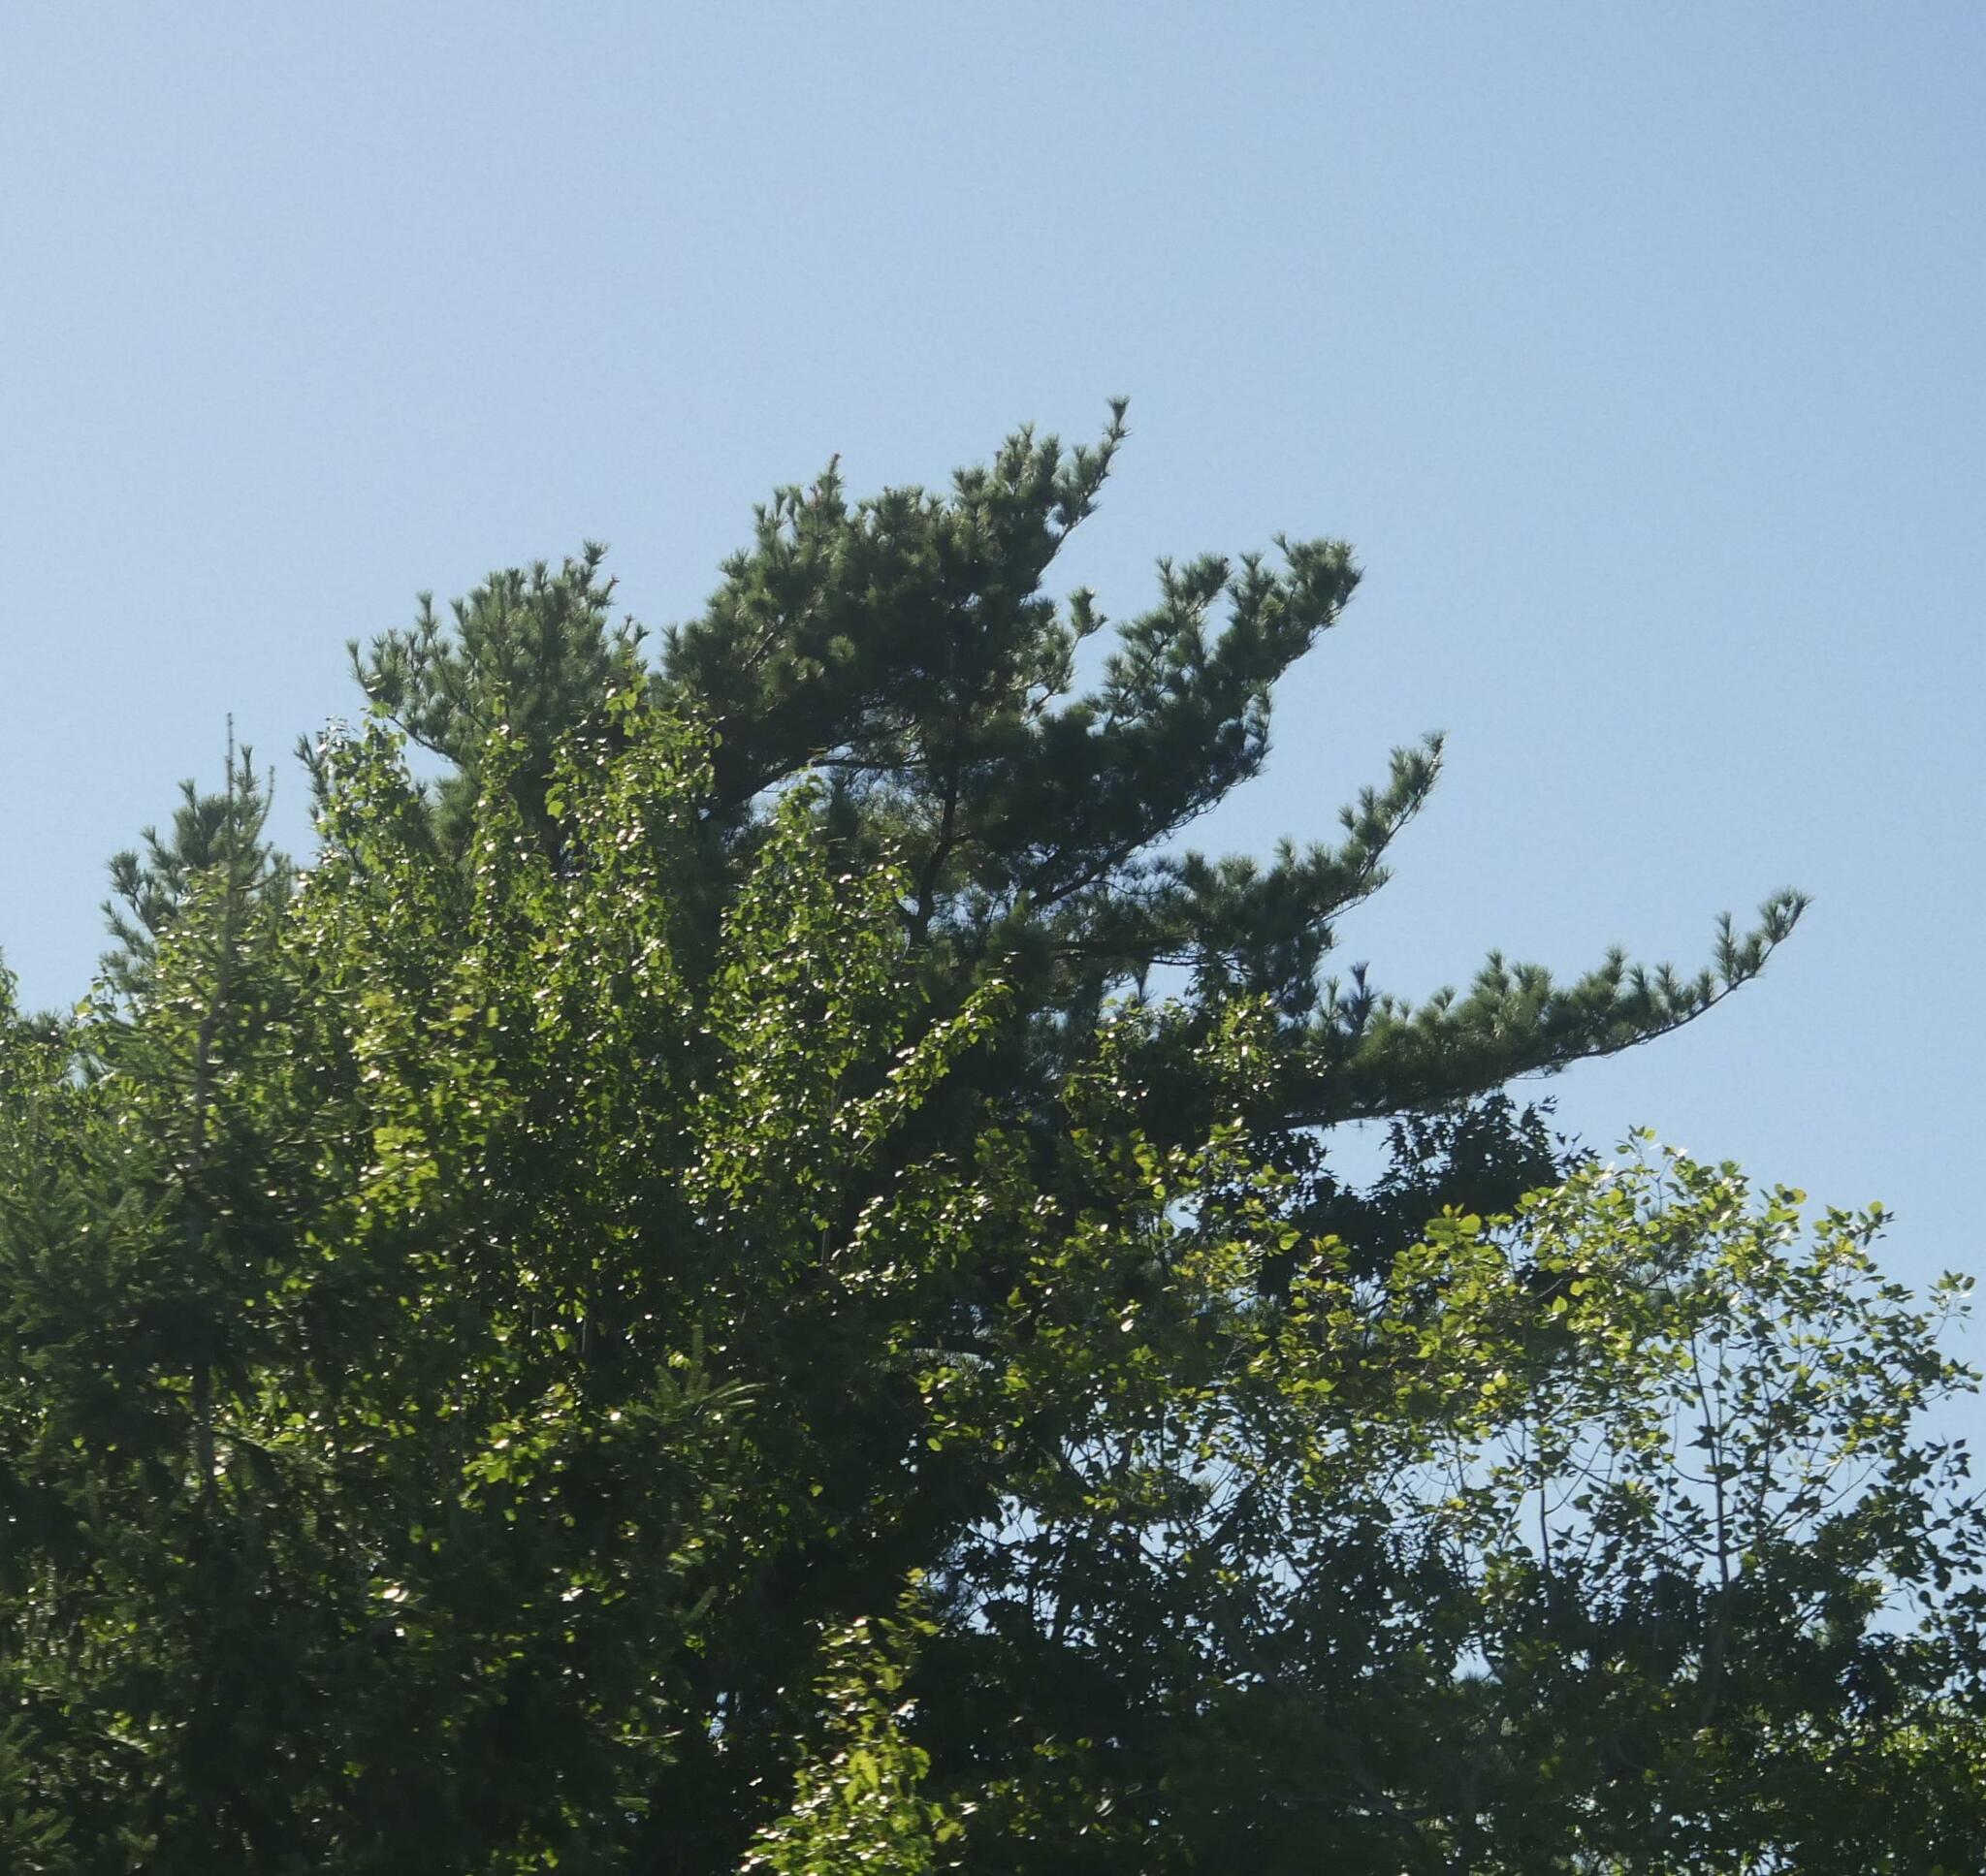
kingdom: Plantae
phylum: Tracheophyta
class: Pinopsida
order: Pinales
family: Pinaceae
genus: Pinus
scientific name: Pinus strobus
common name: Weymouth pine
